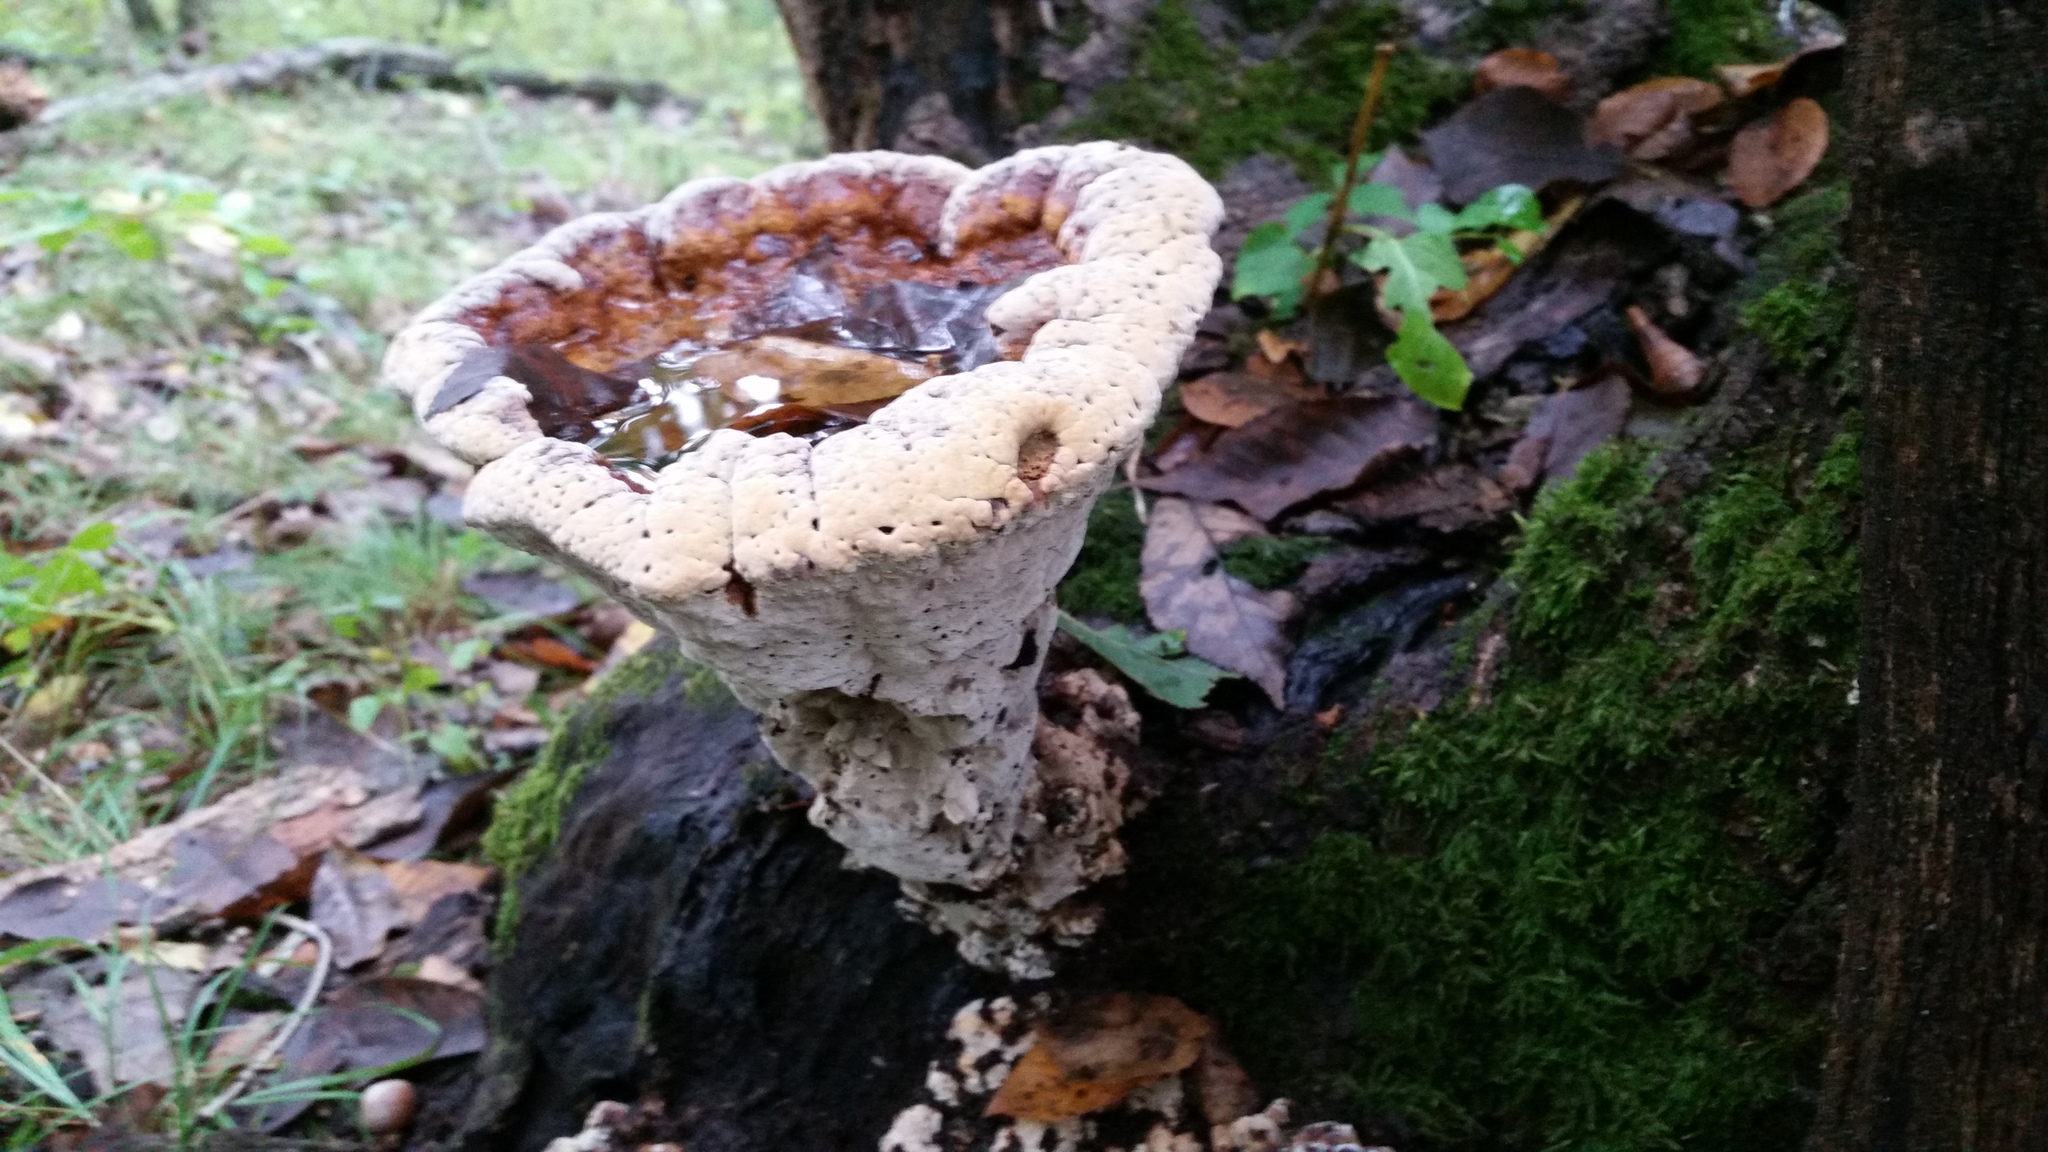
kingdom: Fungi
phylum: Basidiomycota
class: Agaricomycetes
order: Hymenochaetales
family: Hymenochaetaceae
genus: Pseudoinonotus
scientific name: Pseudoinonotus dryadeus
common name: Oak bracket
